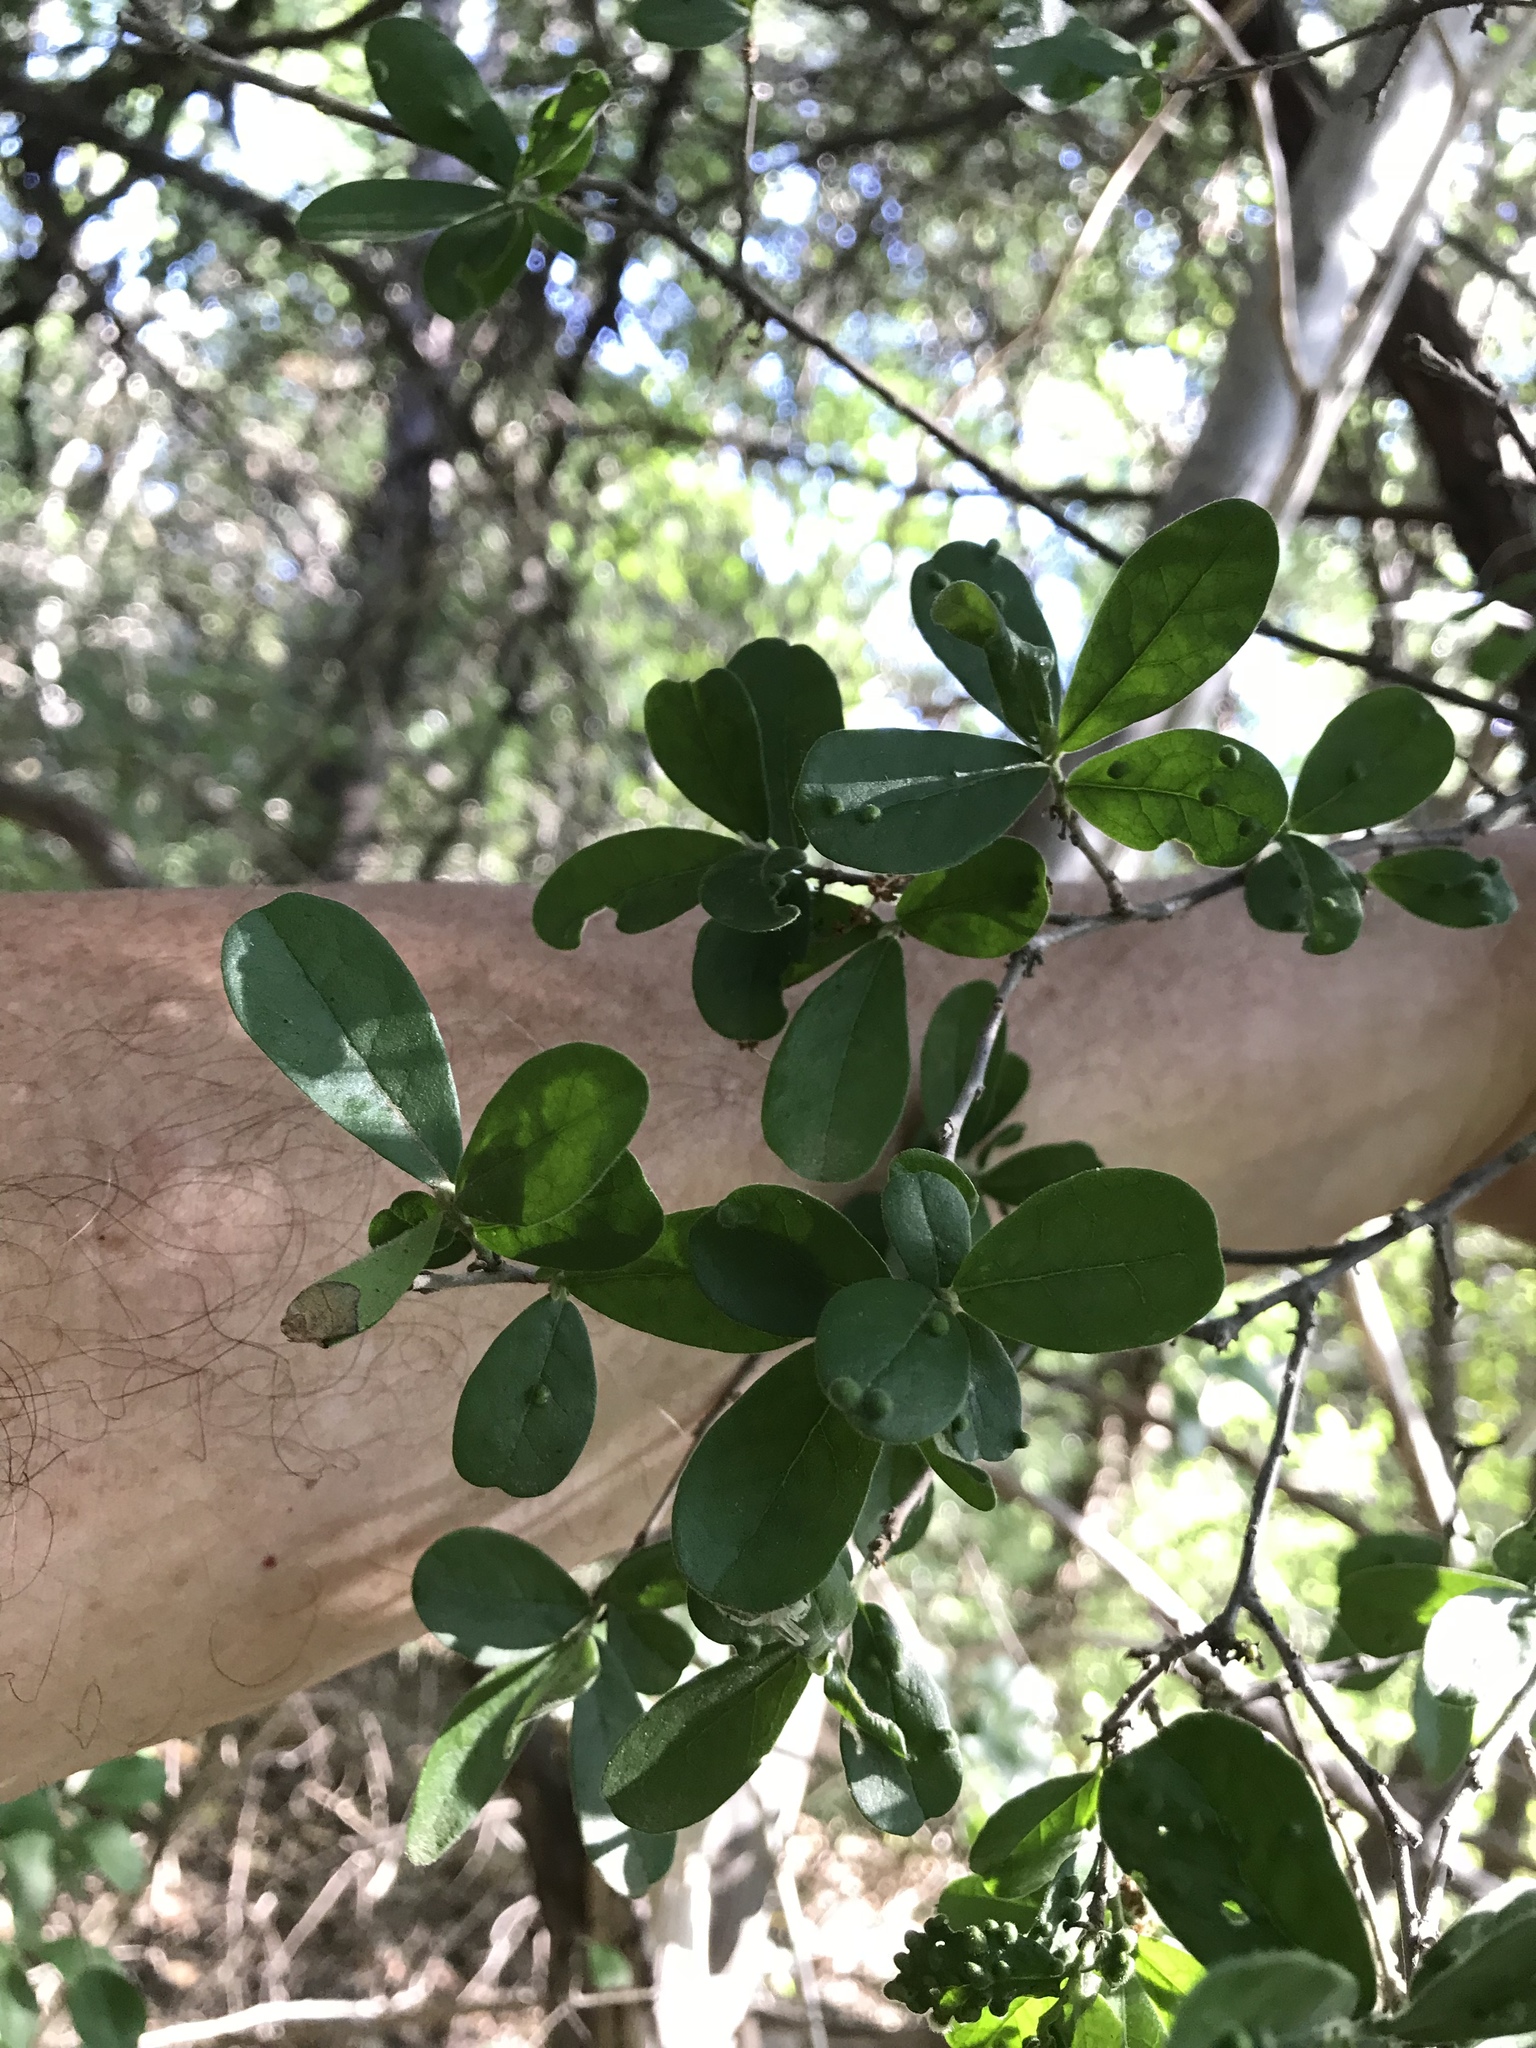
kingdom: Plantae
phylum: Tracheophyta
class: Magnoliopsida
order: Ericales
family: Ebenaceae
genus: Diospyros
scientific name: Diospyros texana
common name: Texas persimmon
